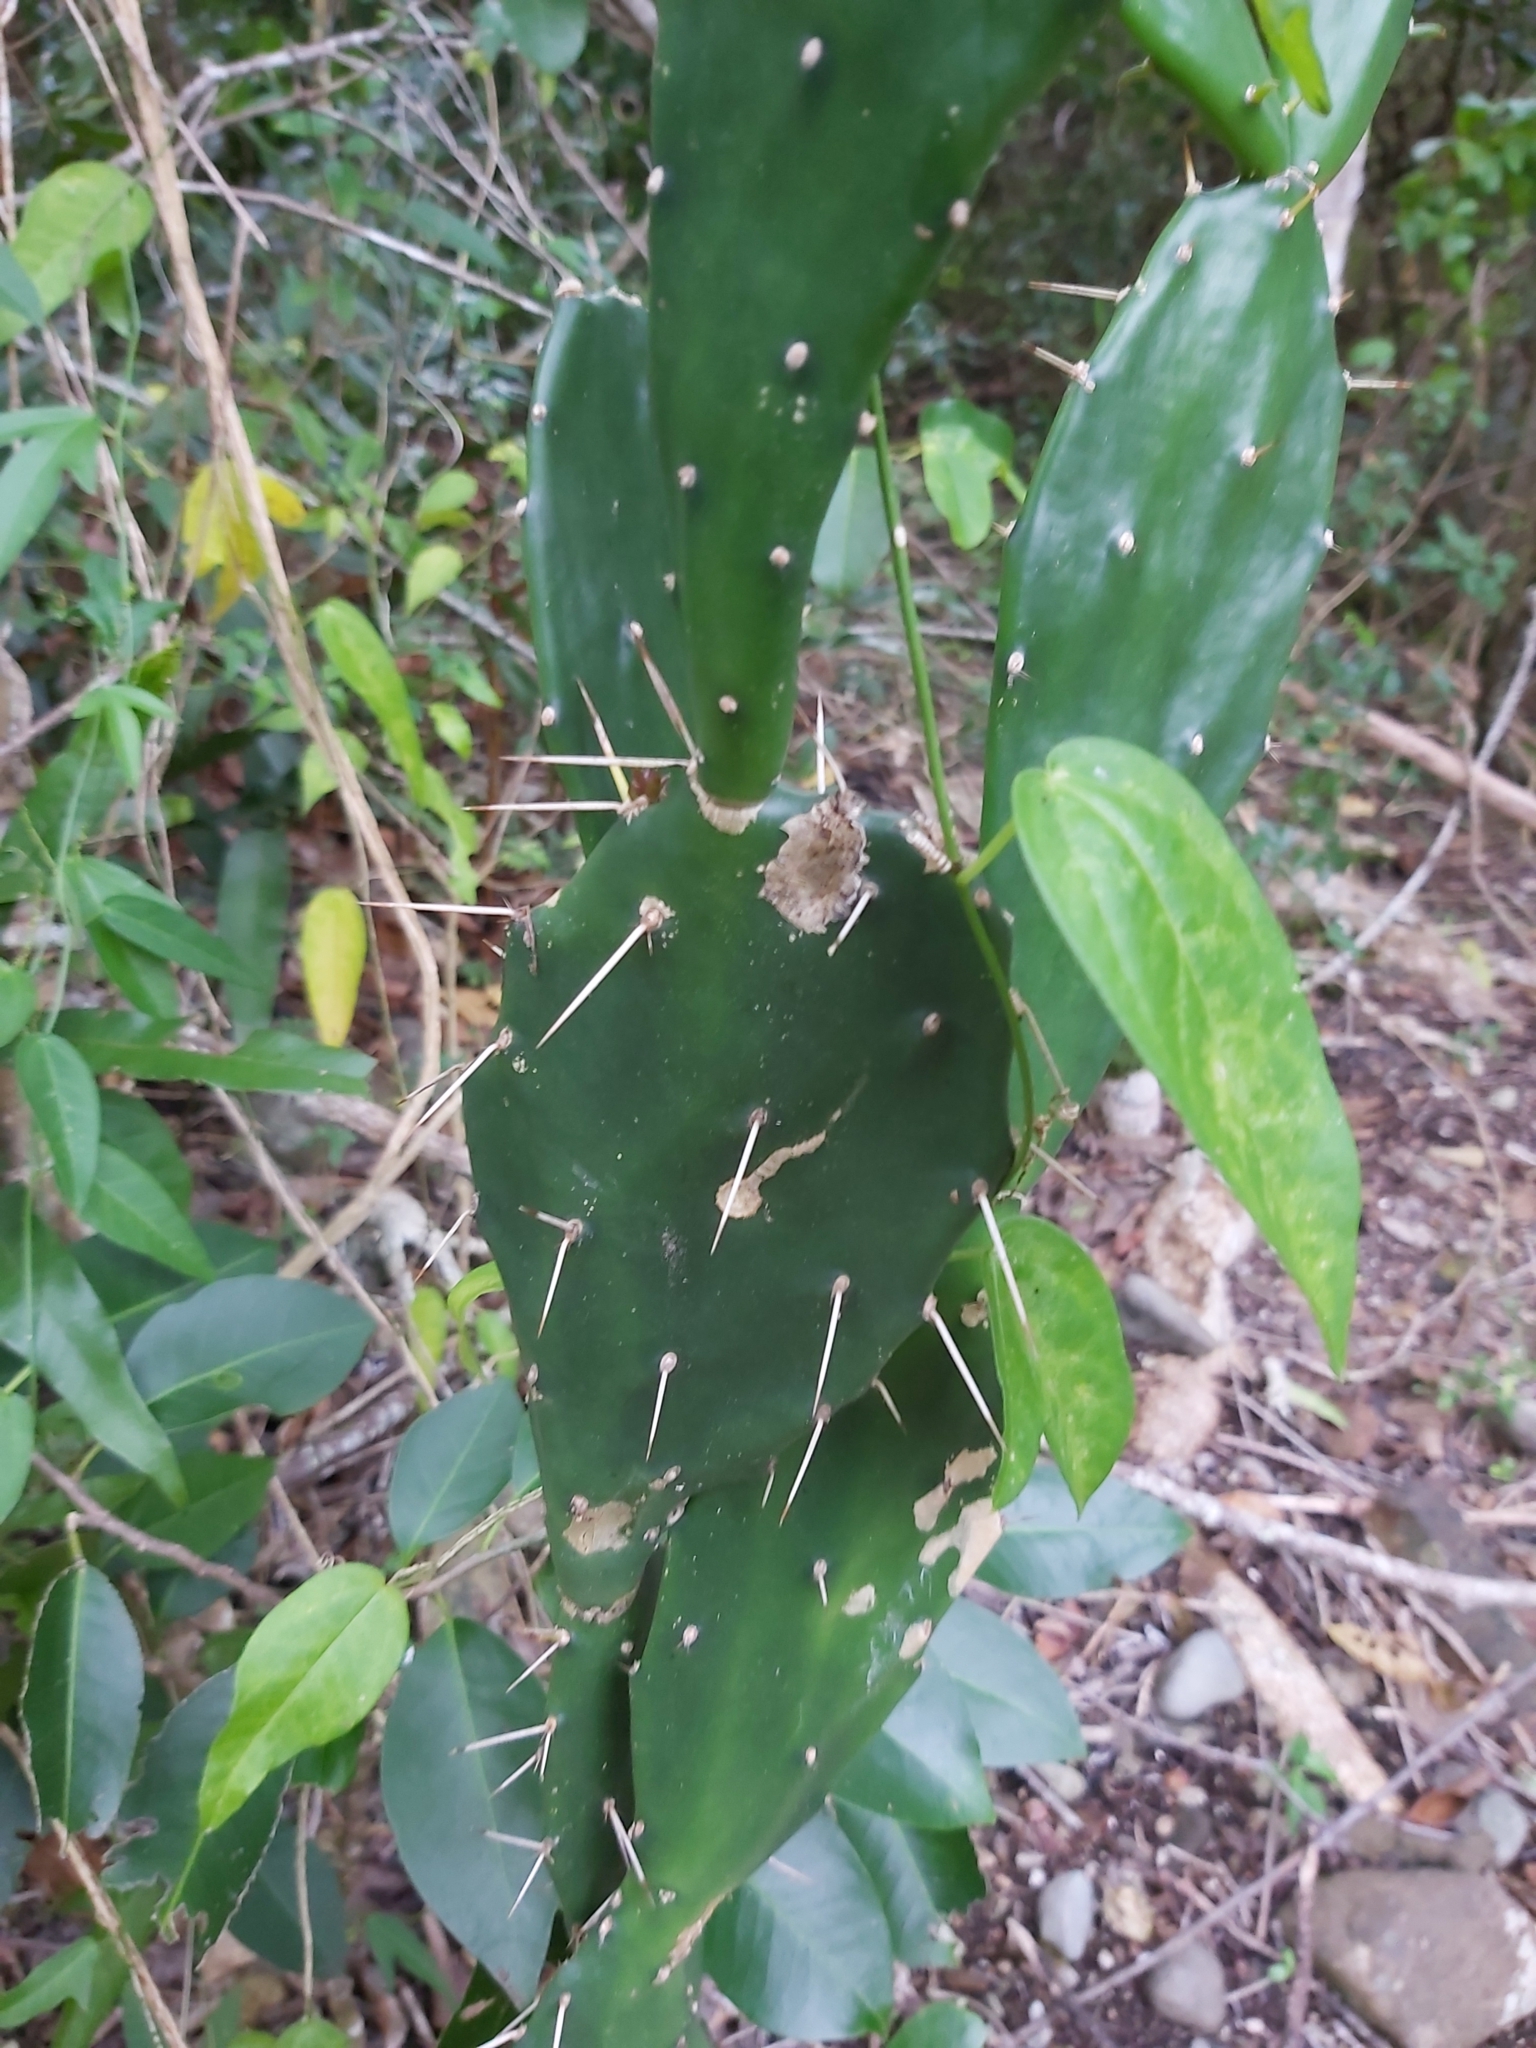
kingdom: Plantae
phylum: Tracheophyta
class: Magnoliopsida
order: Caryophyllales
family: Cactaceae
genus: Opuntia
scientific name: Opuntia monacantha
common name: Common pricklypear
